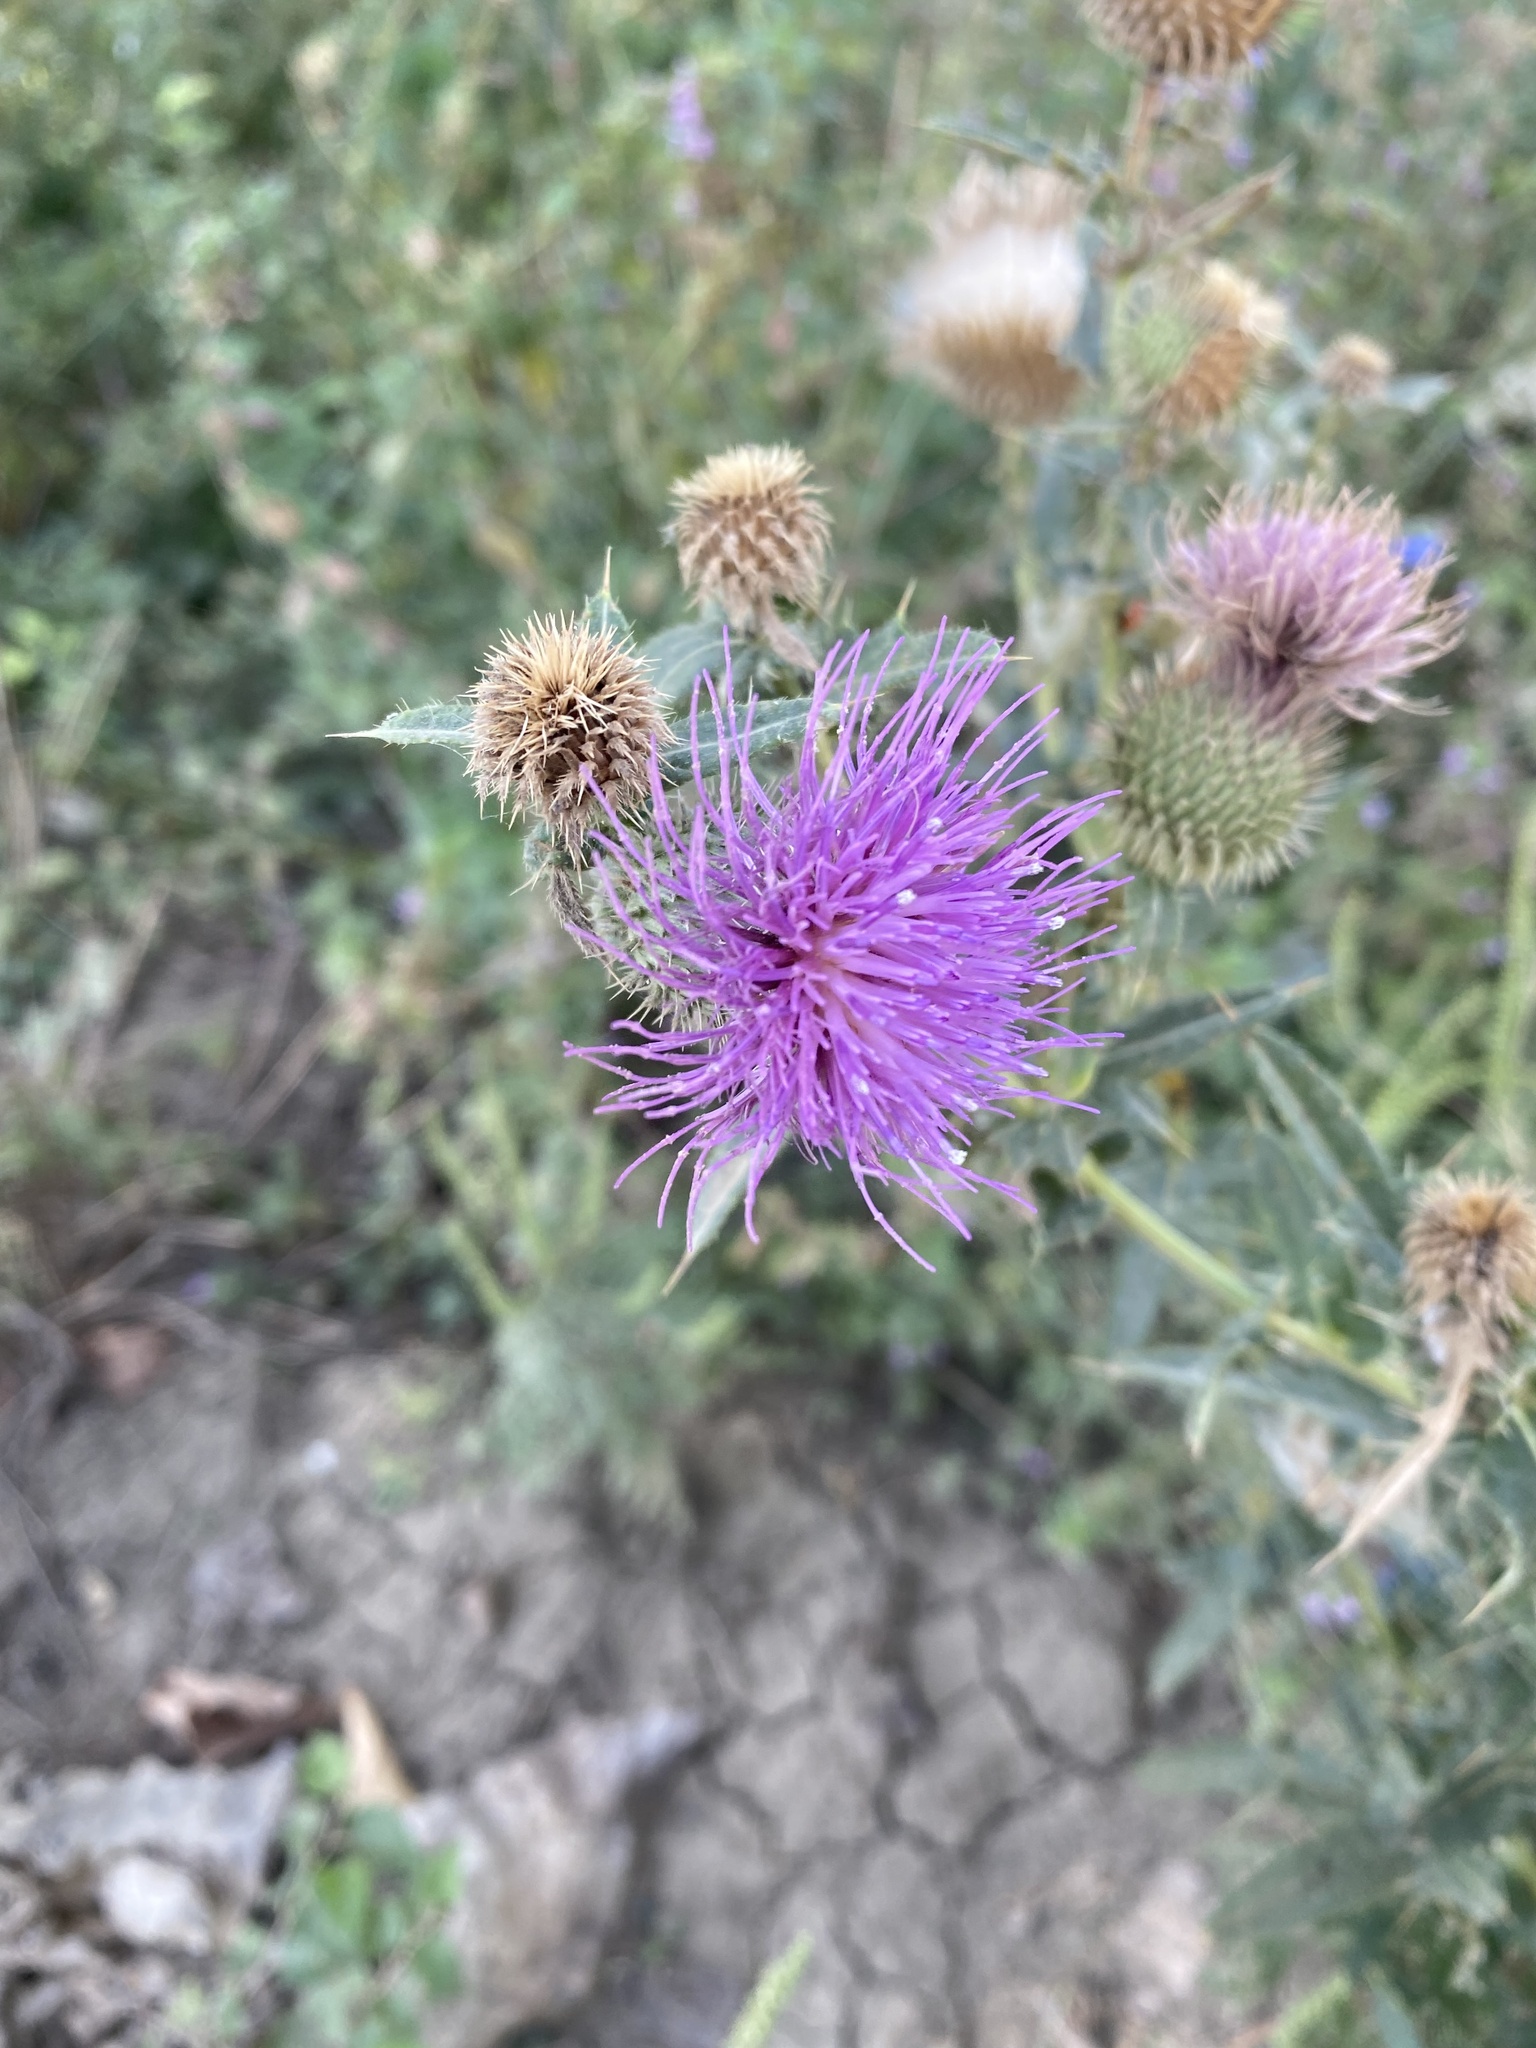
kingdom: Plantae
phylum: Tracheophyta
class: Magnoliopsida
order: Asterales
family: Asteraceae
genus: Lophiolepis
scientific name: Lophiolepis ciliata
